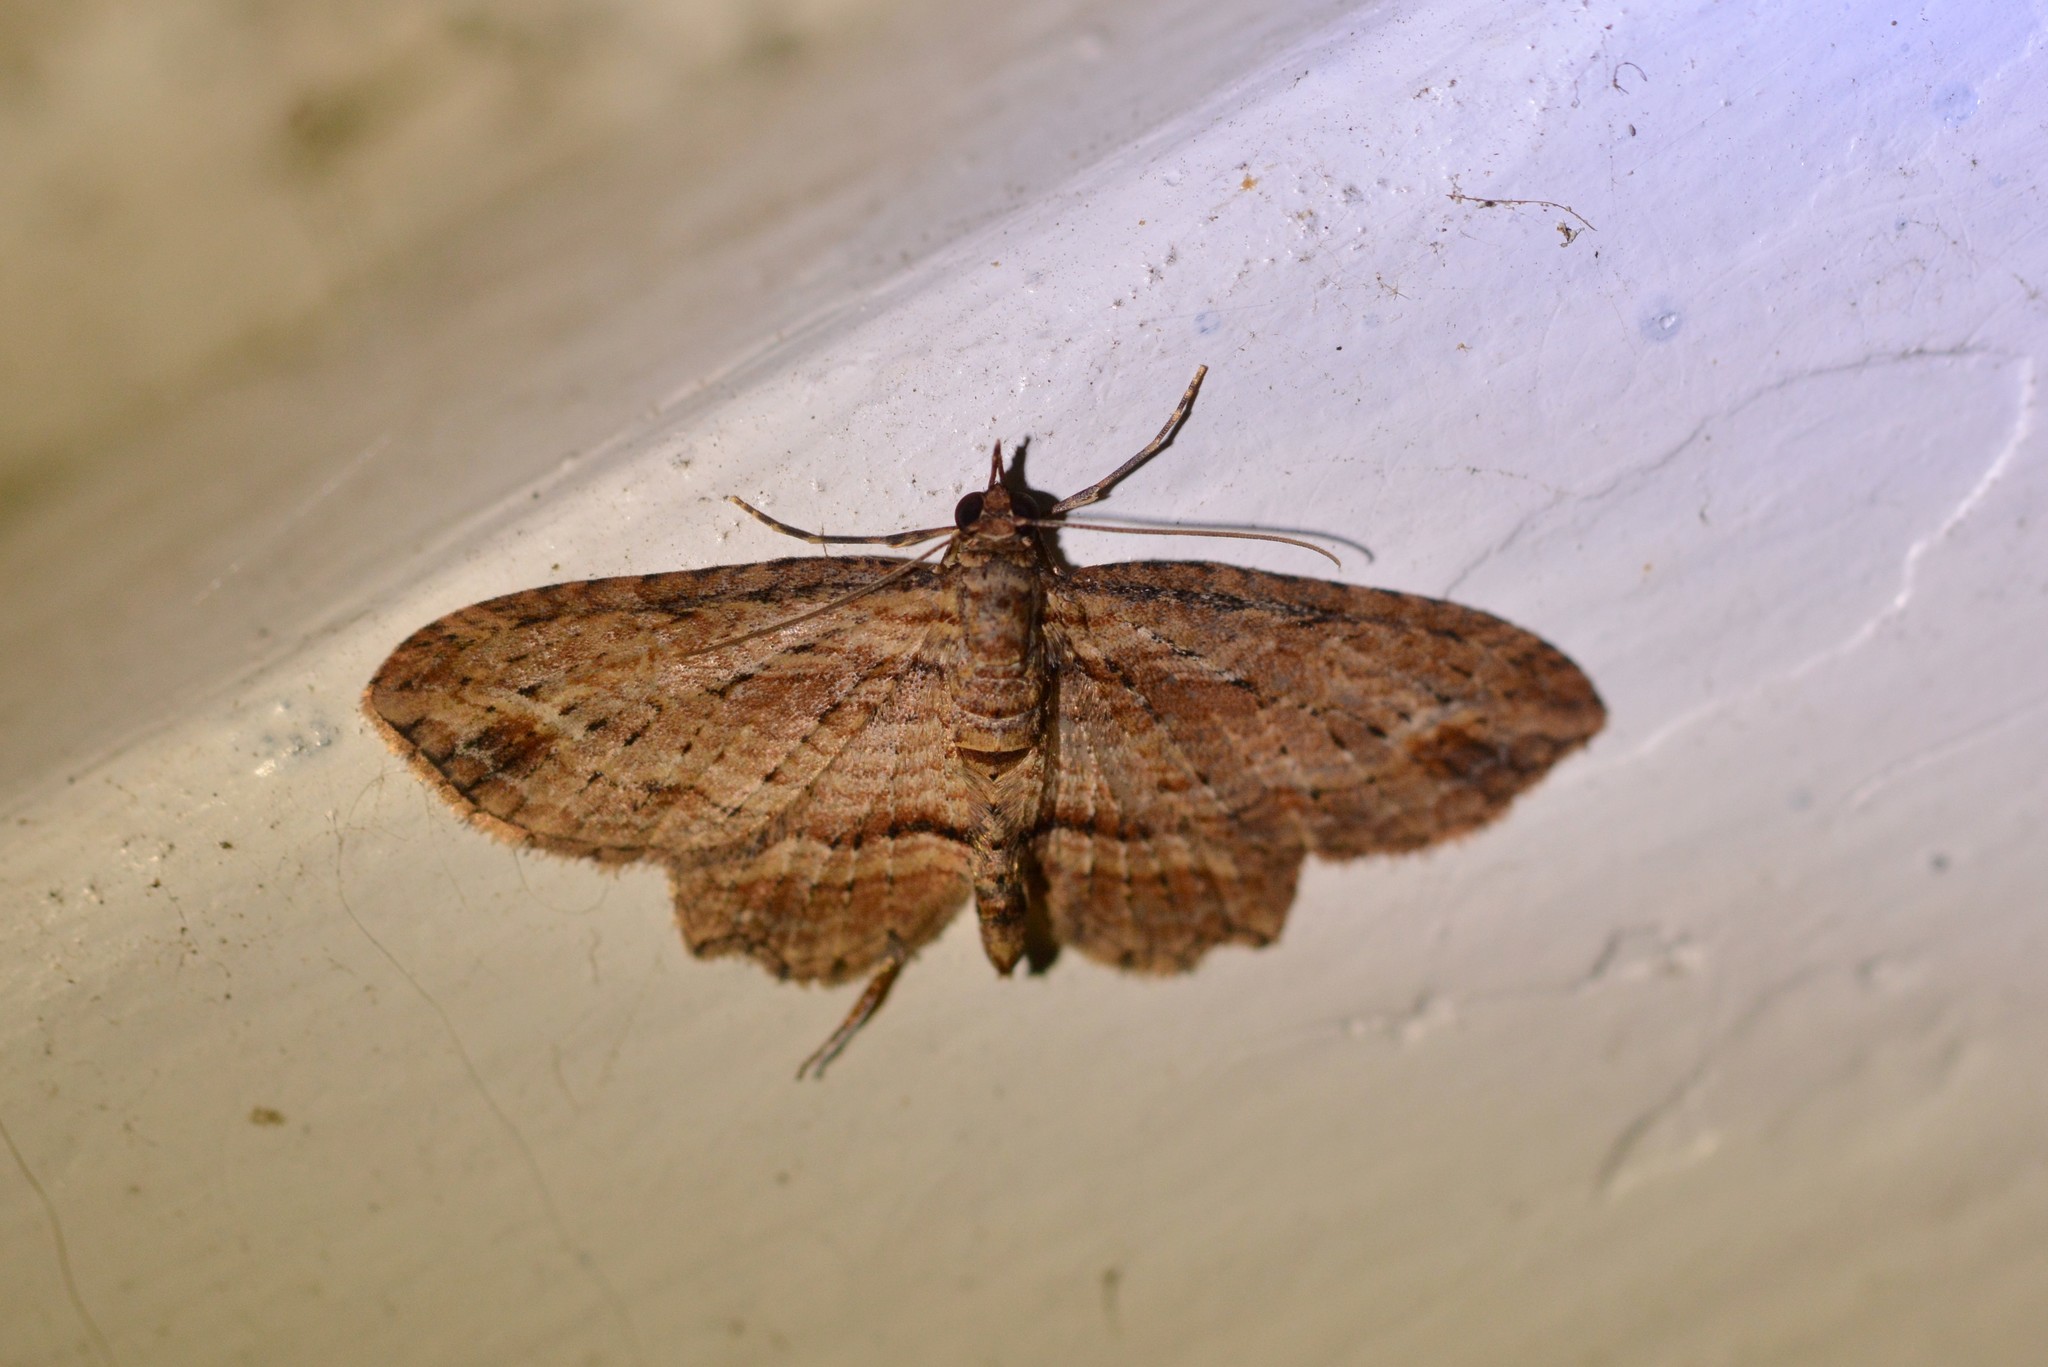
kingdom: Animalia
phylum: Arthropoda
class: Insecta
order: Lepidoptera
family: Geometridae
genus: Chloroclystis
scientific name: Chloroclystis filata
